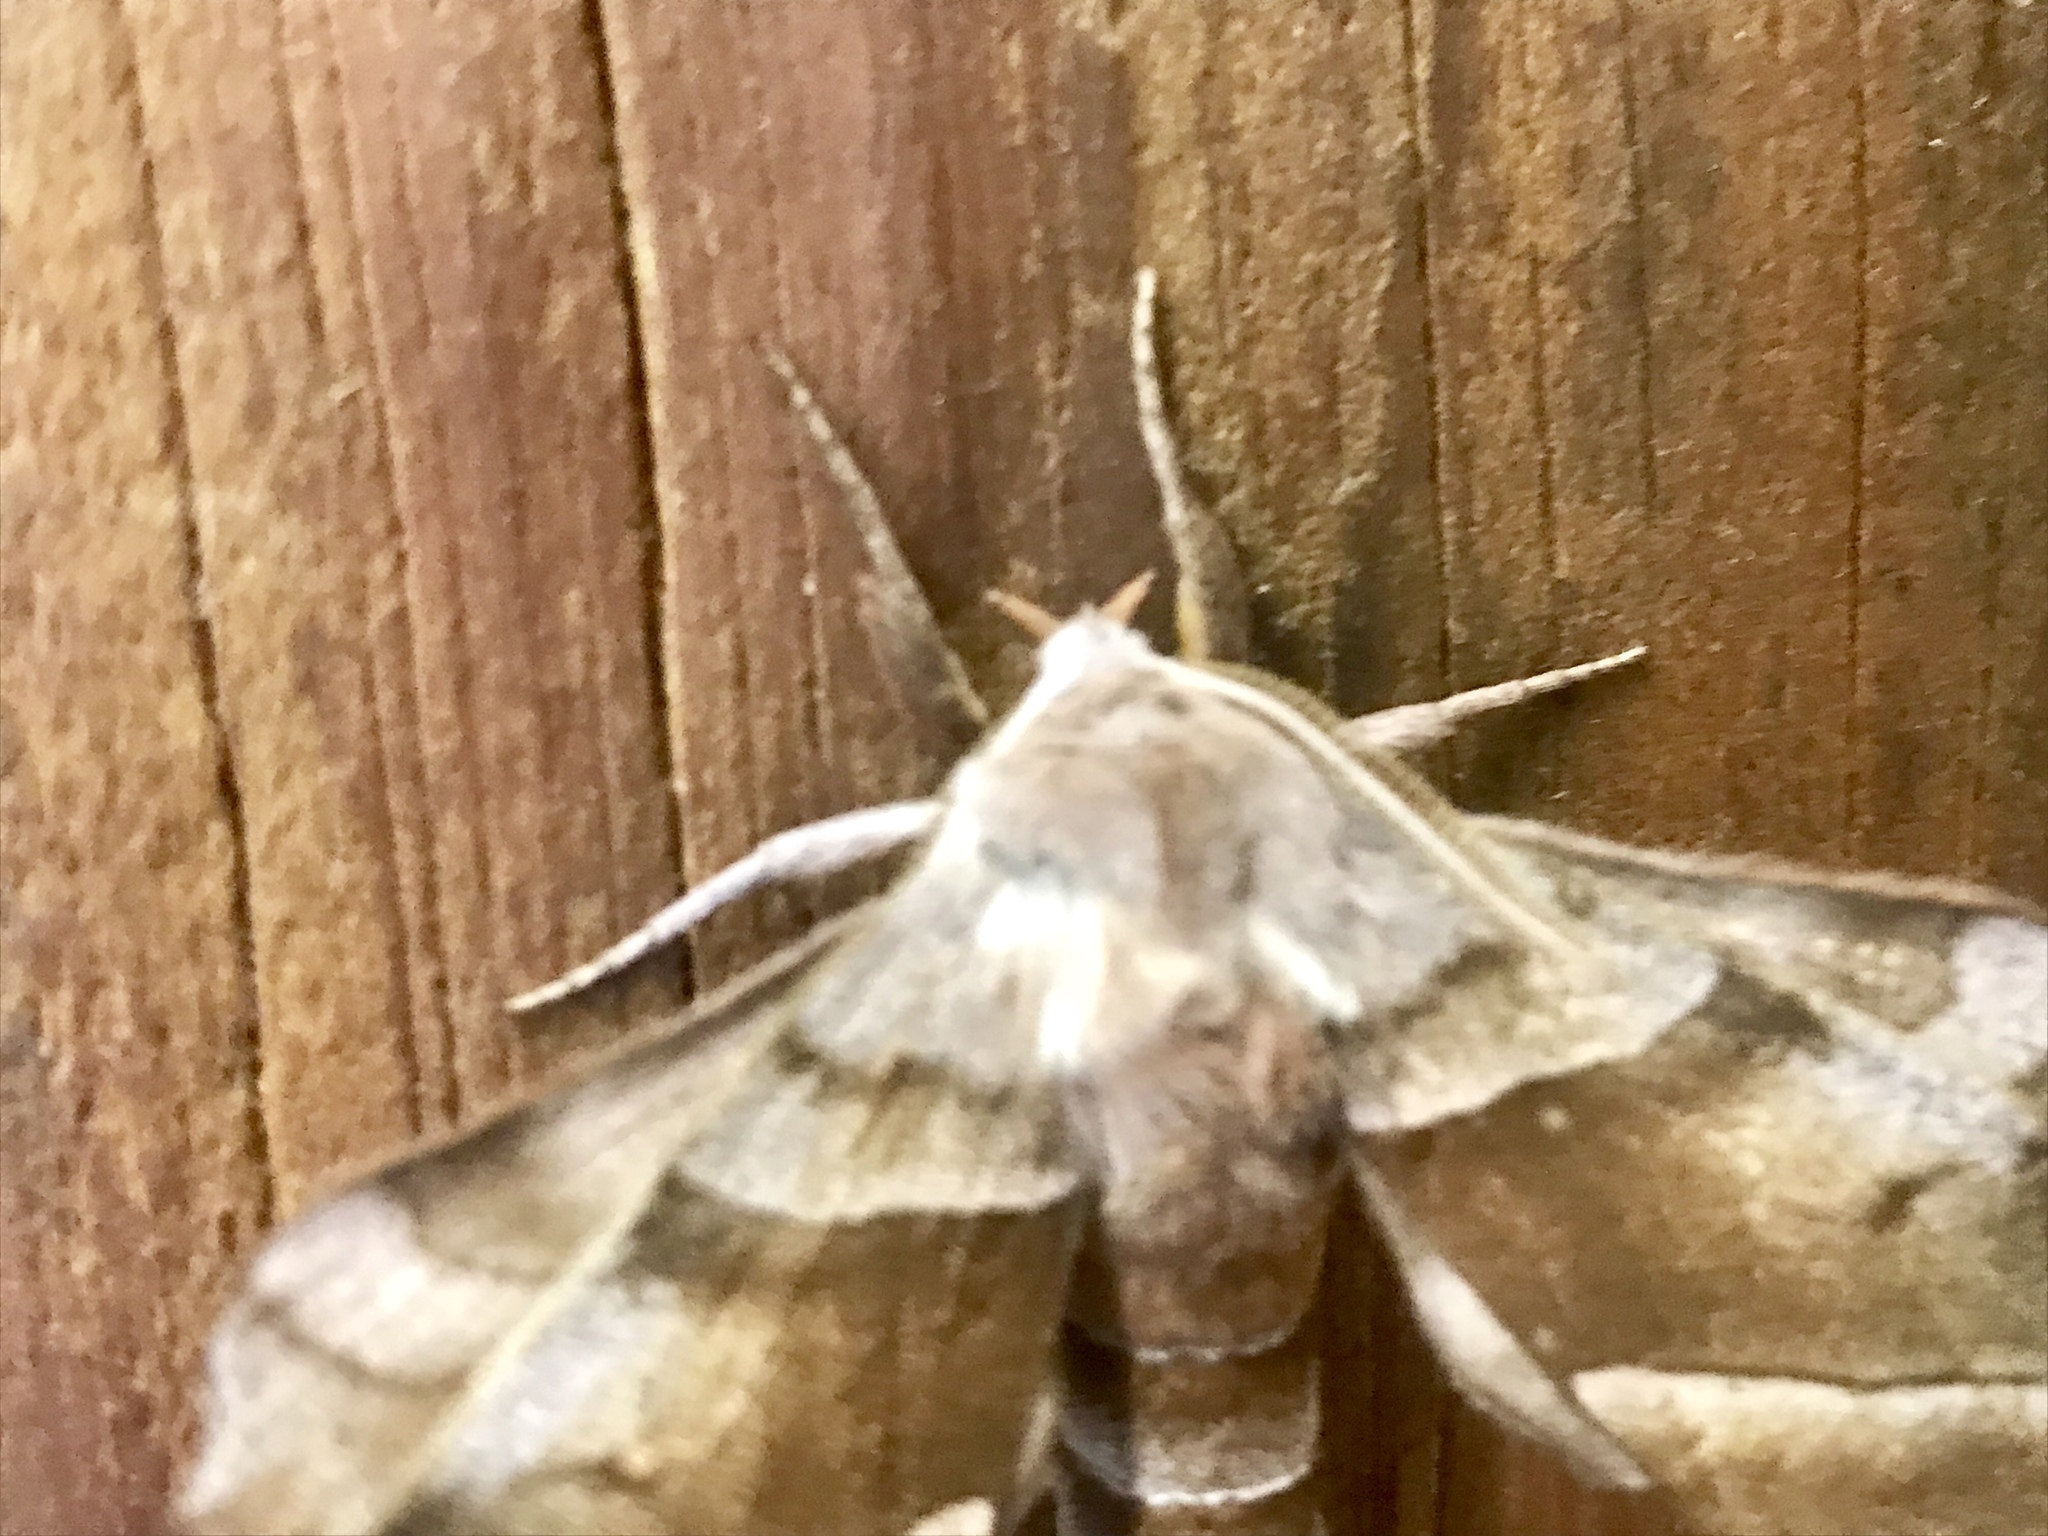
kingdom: Animalia
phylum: Arthropoda
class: Insecta
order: Lepidoptera
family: Sphingidae
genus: Amorpha
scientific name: Amorpha juglandis
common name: Walnut sphinx
